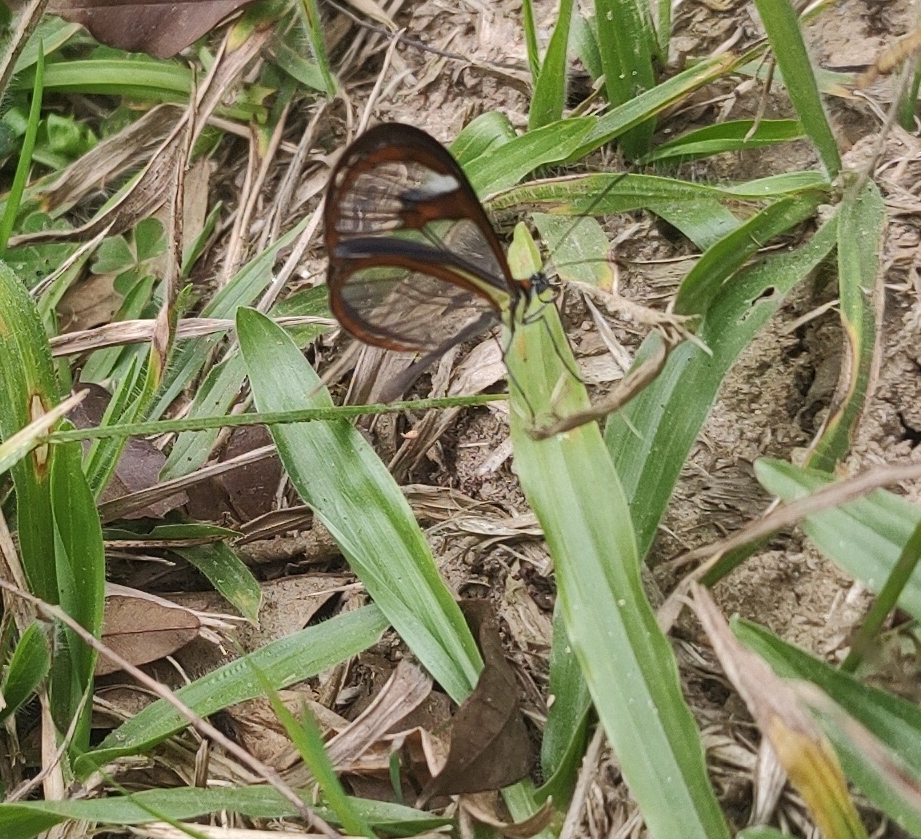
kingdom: Animalia
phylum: Arthropoda
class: Insecta
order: Lepidoptera
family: Nymphalidae
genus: Ithomia
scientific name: Ithomia agnosia
